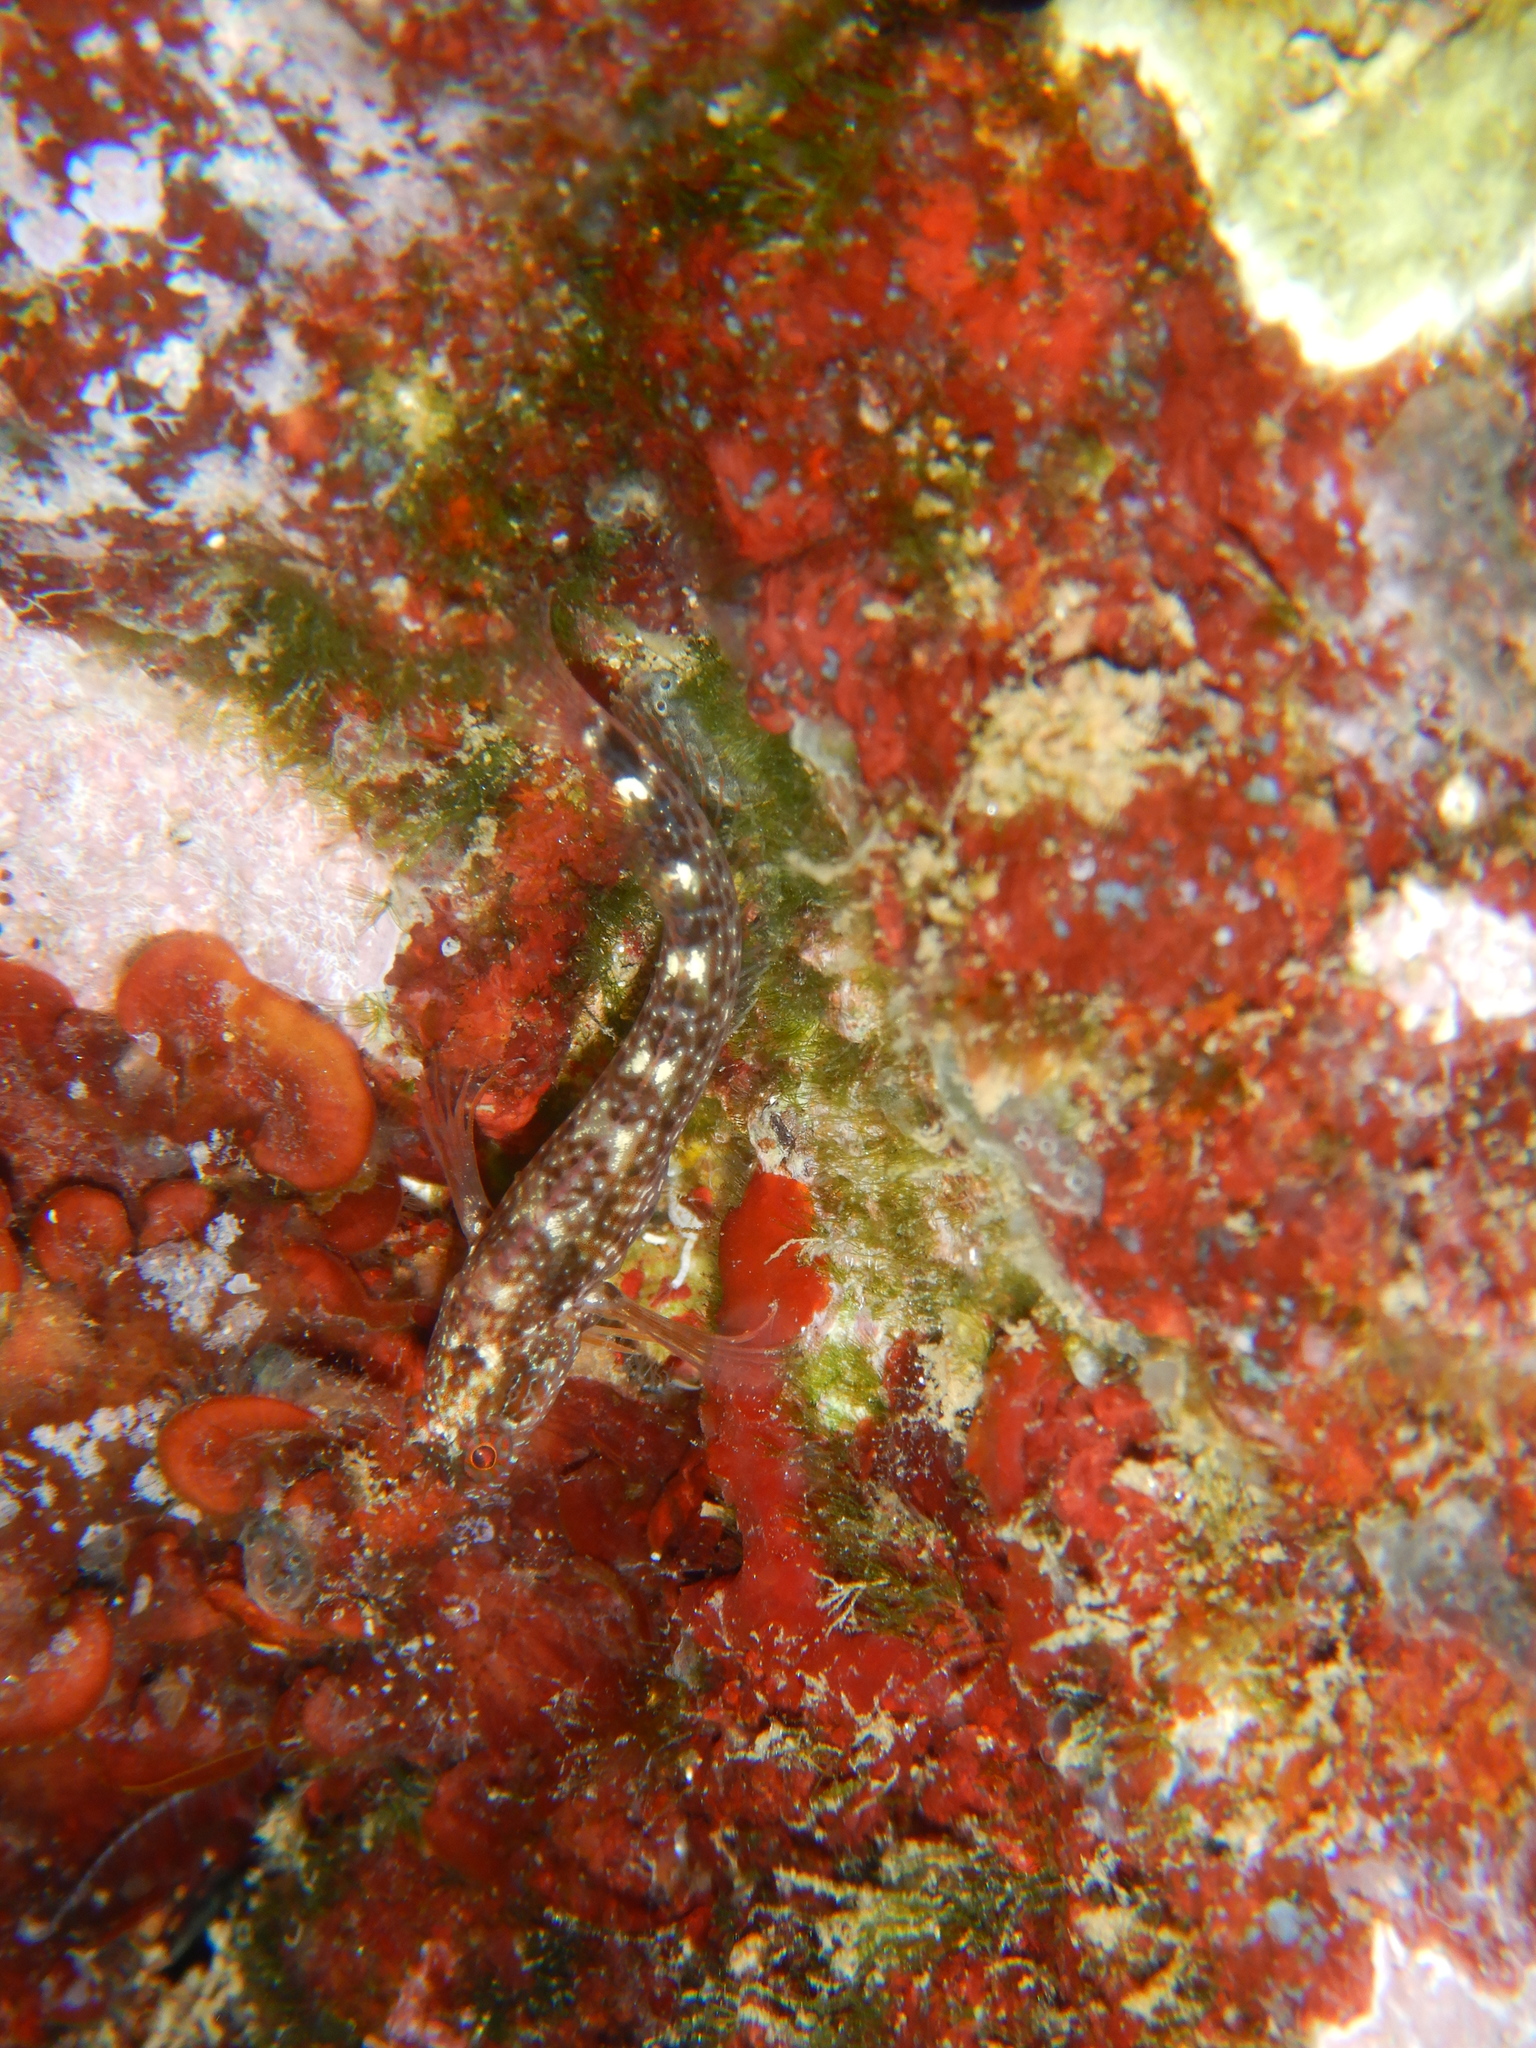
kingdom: Animalia
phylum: Chordata
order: Perciformes
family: Blenniidae
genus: Parablennius
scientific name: Parablennius zvonimiri
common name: Red blenny
